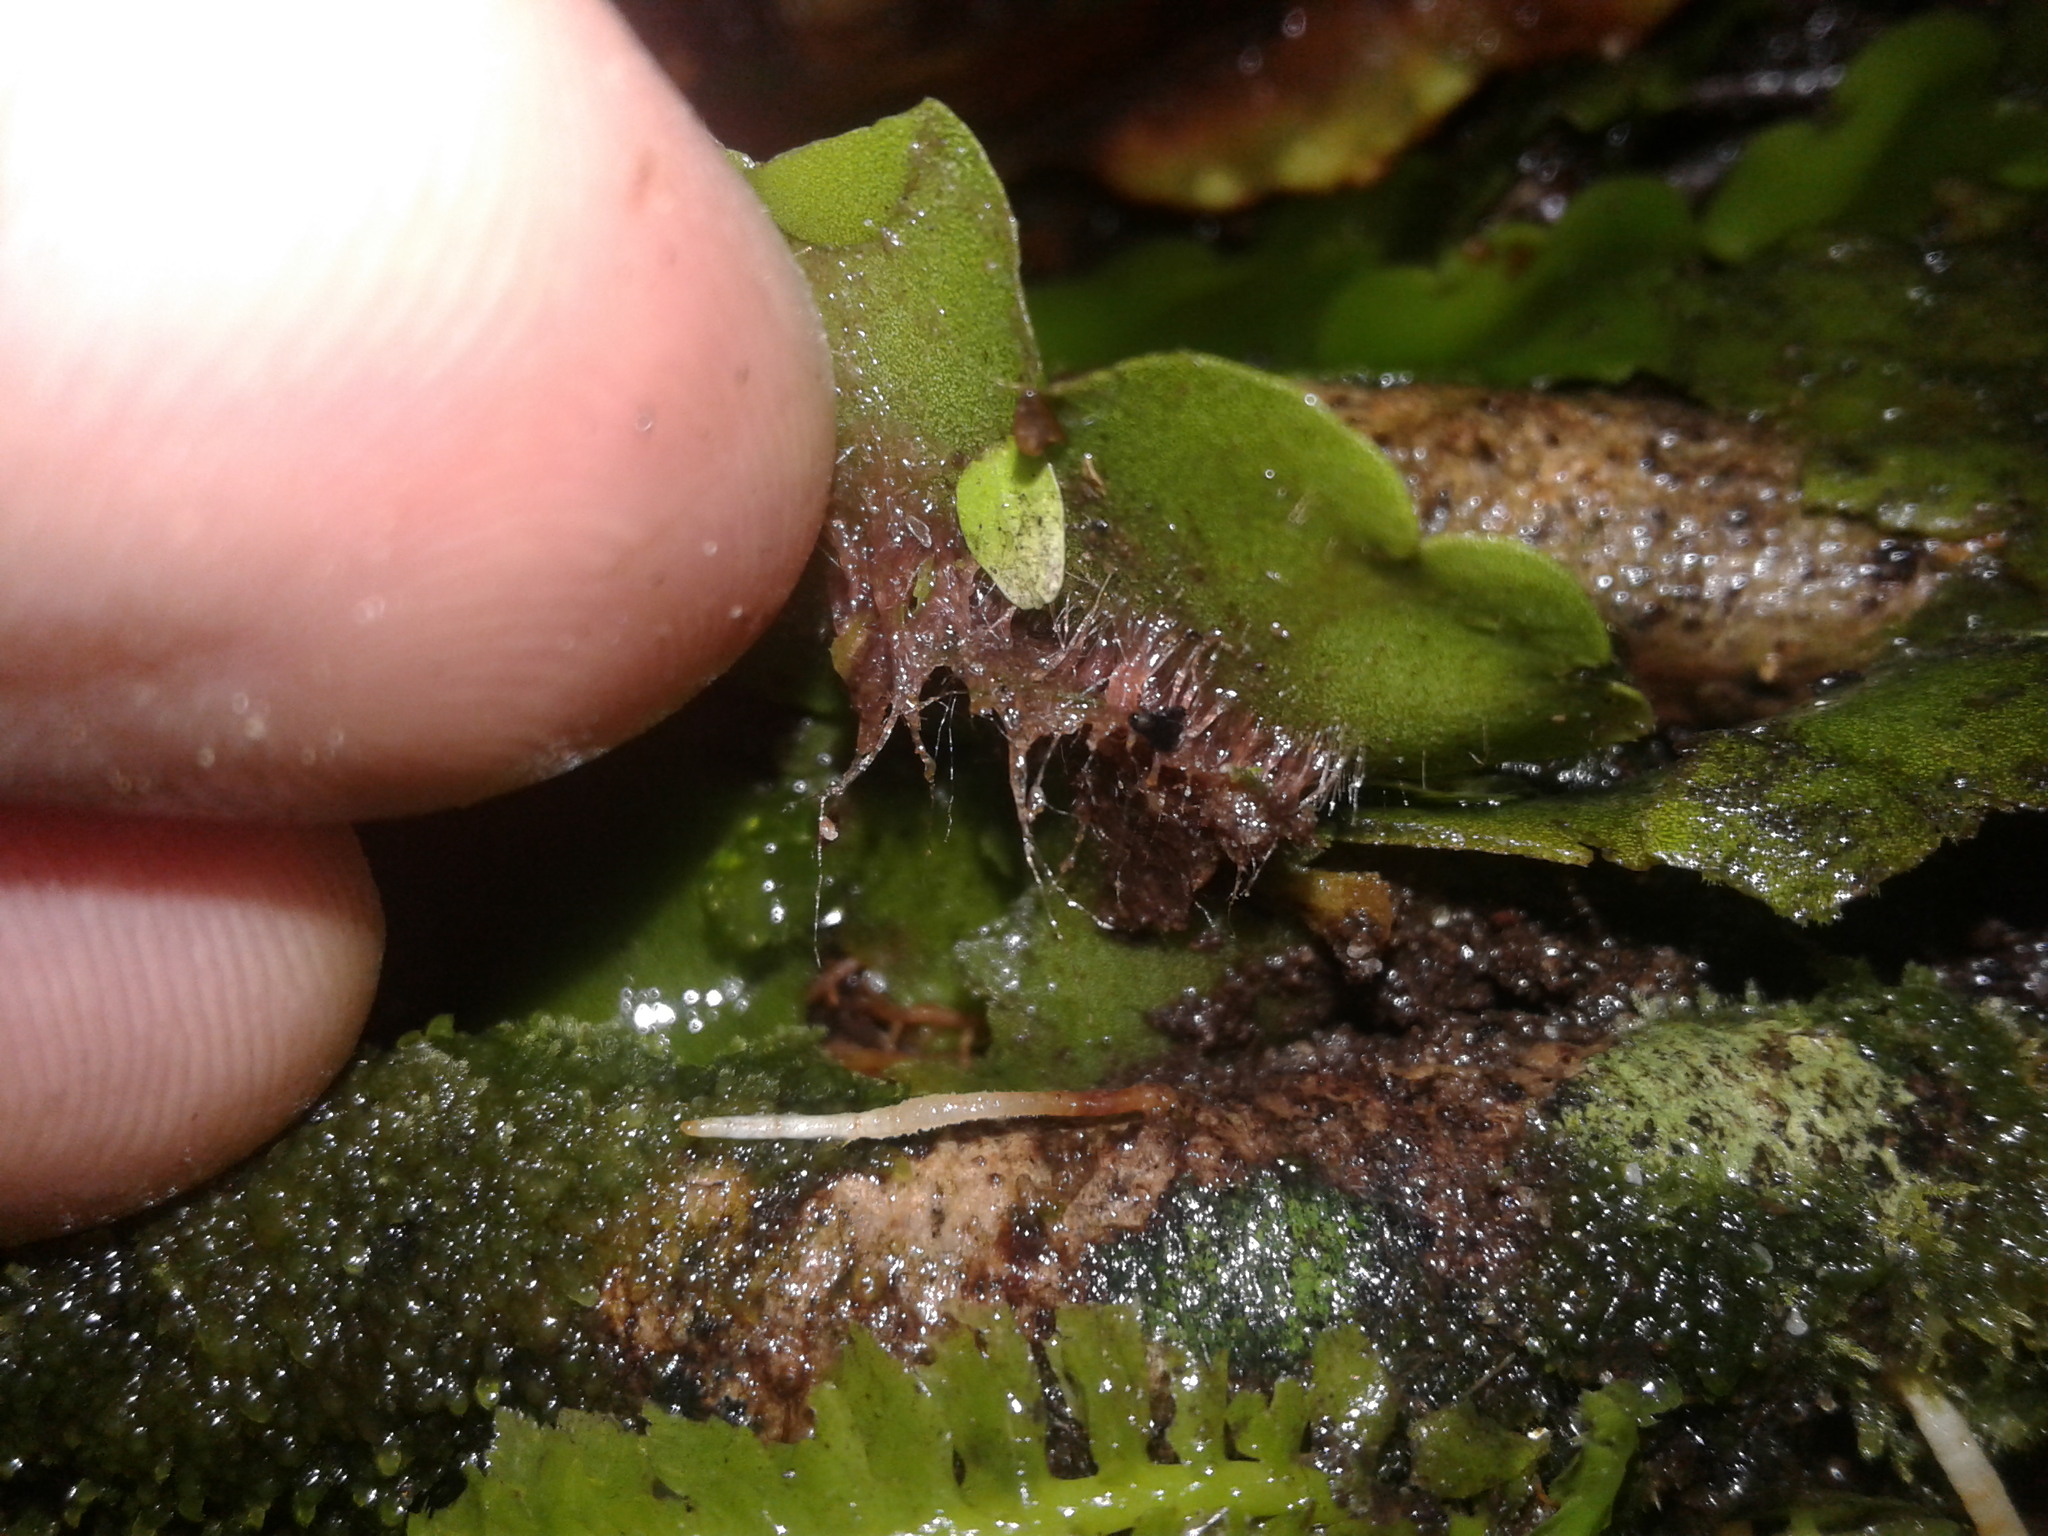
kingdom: Plantae
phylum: Marchantiophyta
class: Marchantiopsida
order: Marchantiales
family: Monocleaceae
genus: Monoclea
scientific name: Monoclea forsteri
